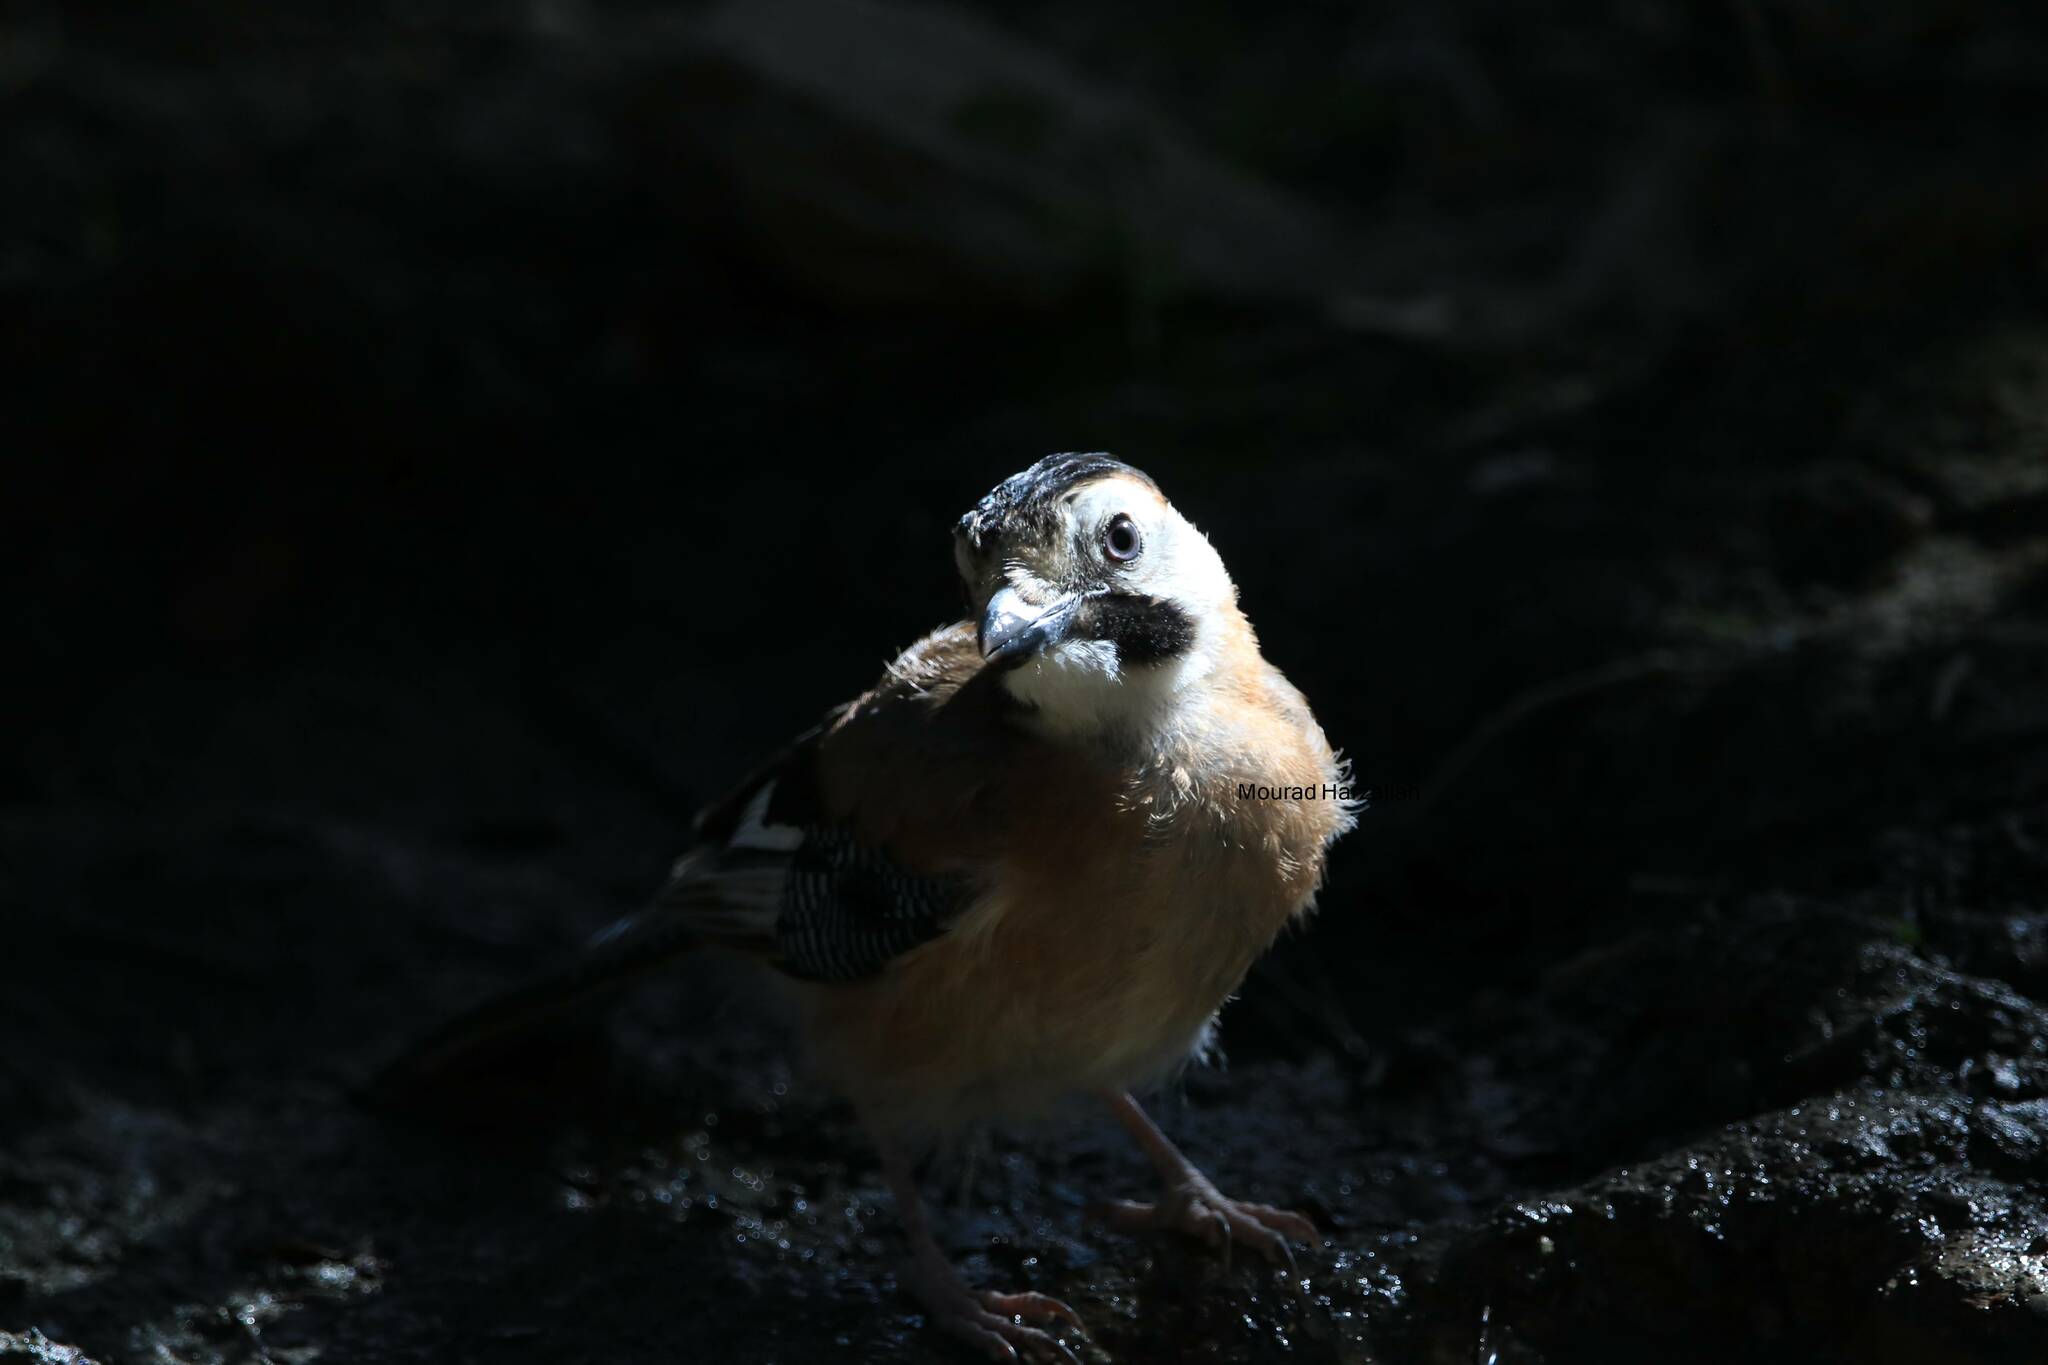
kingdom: Animalia
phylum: Chordata
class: Aves
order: Passeriformes
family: Corvidae
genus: Garrulus
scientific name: Garrulus glandarius
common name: Eurasian jay
